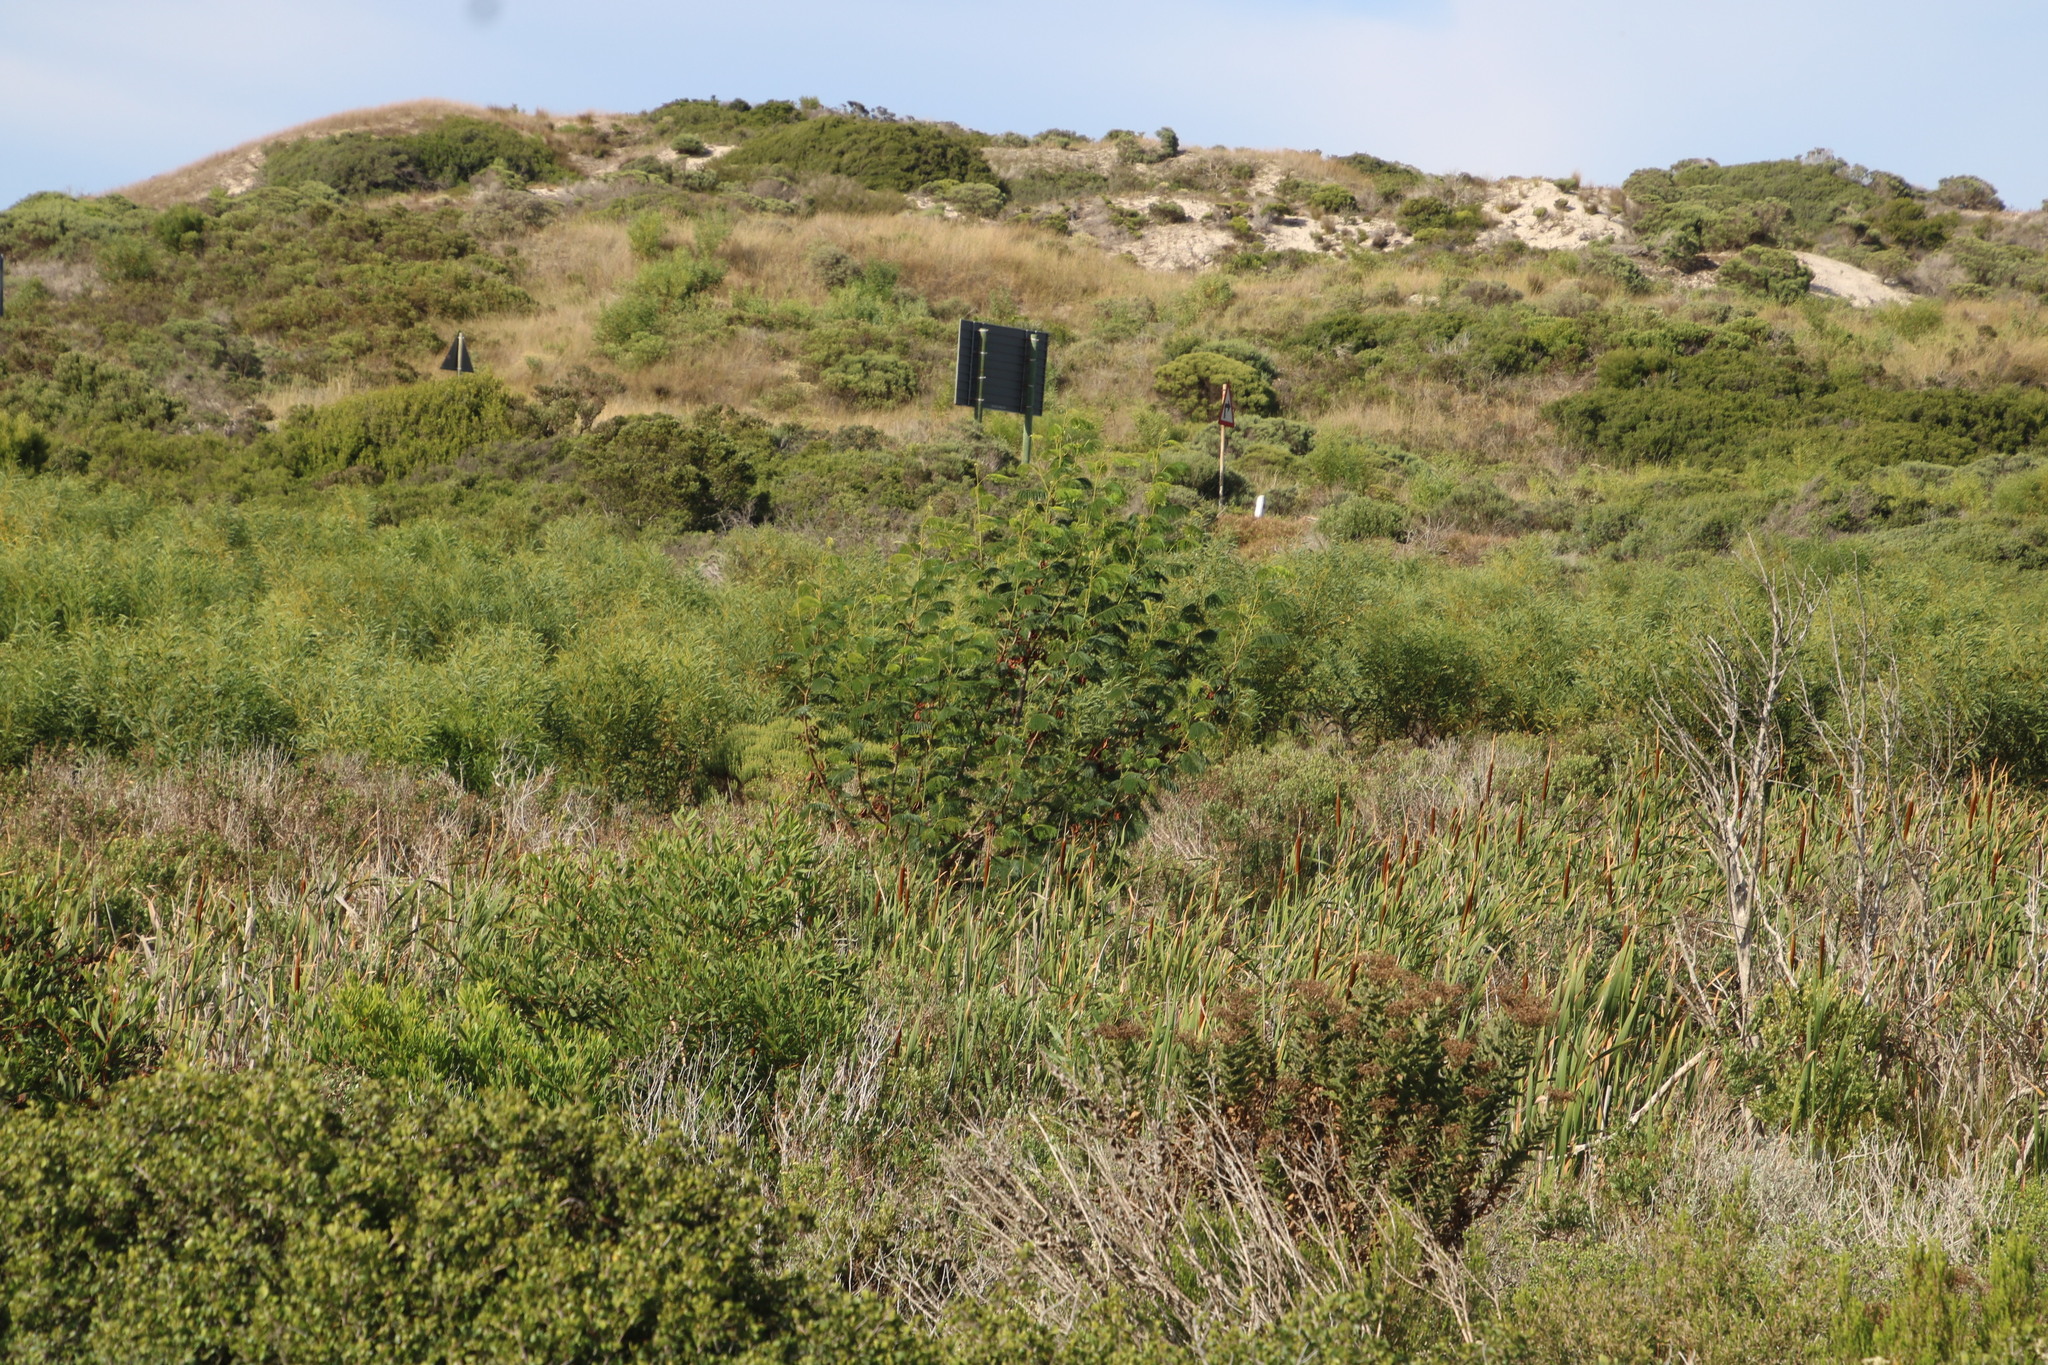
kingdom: Plantae
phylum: Tracheophyta
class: Magnoliopsida
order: Fabales
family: Fabaceae
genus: Paraserianthes
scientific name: Paraserianthes lophantha
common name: Plume albizia
